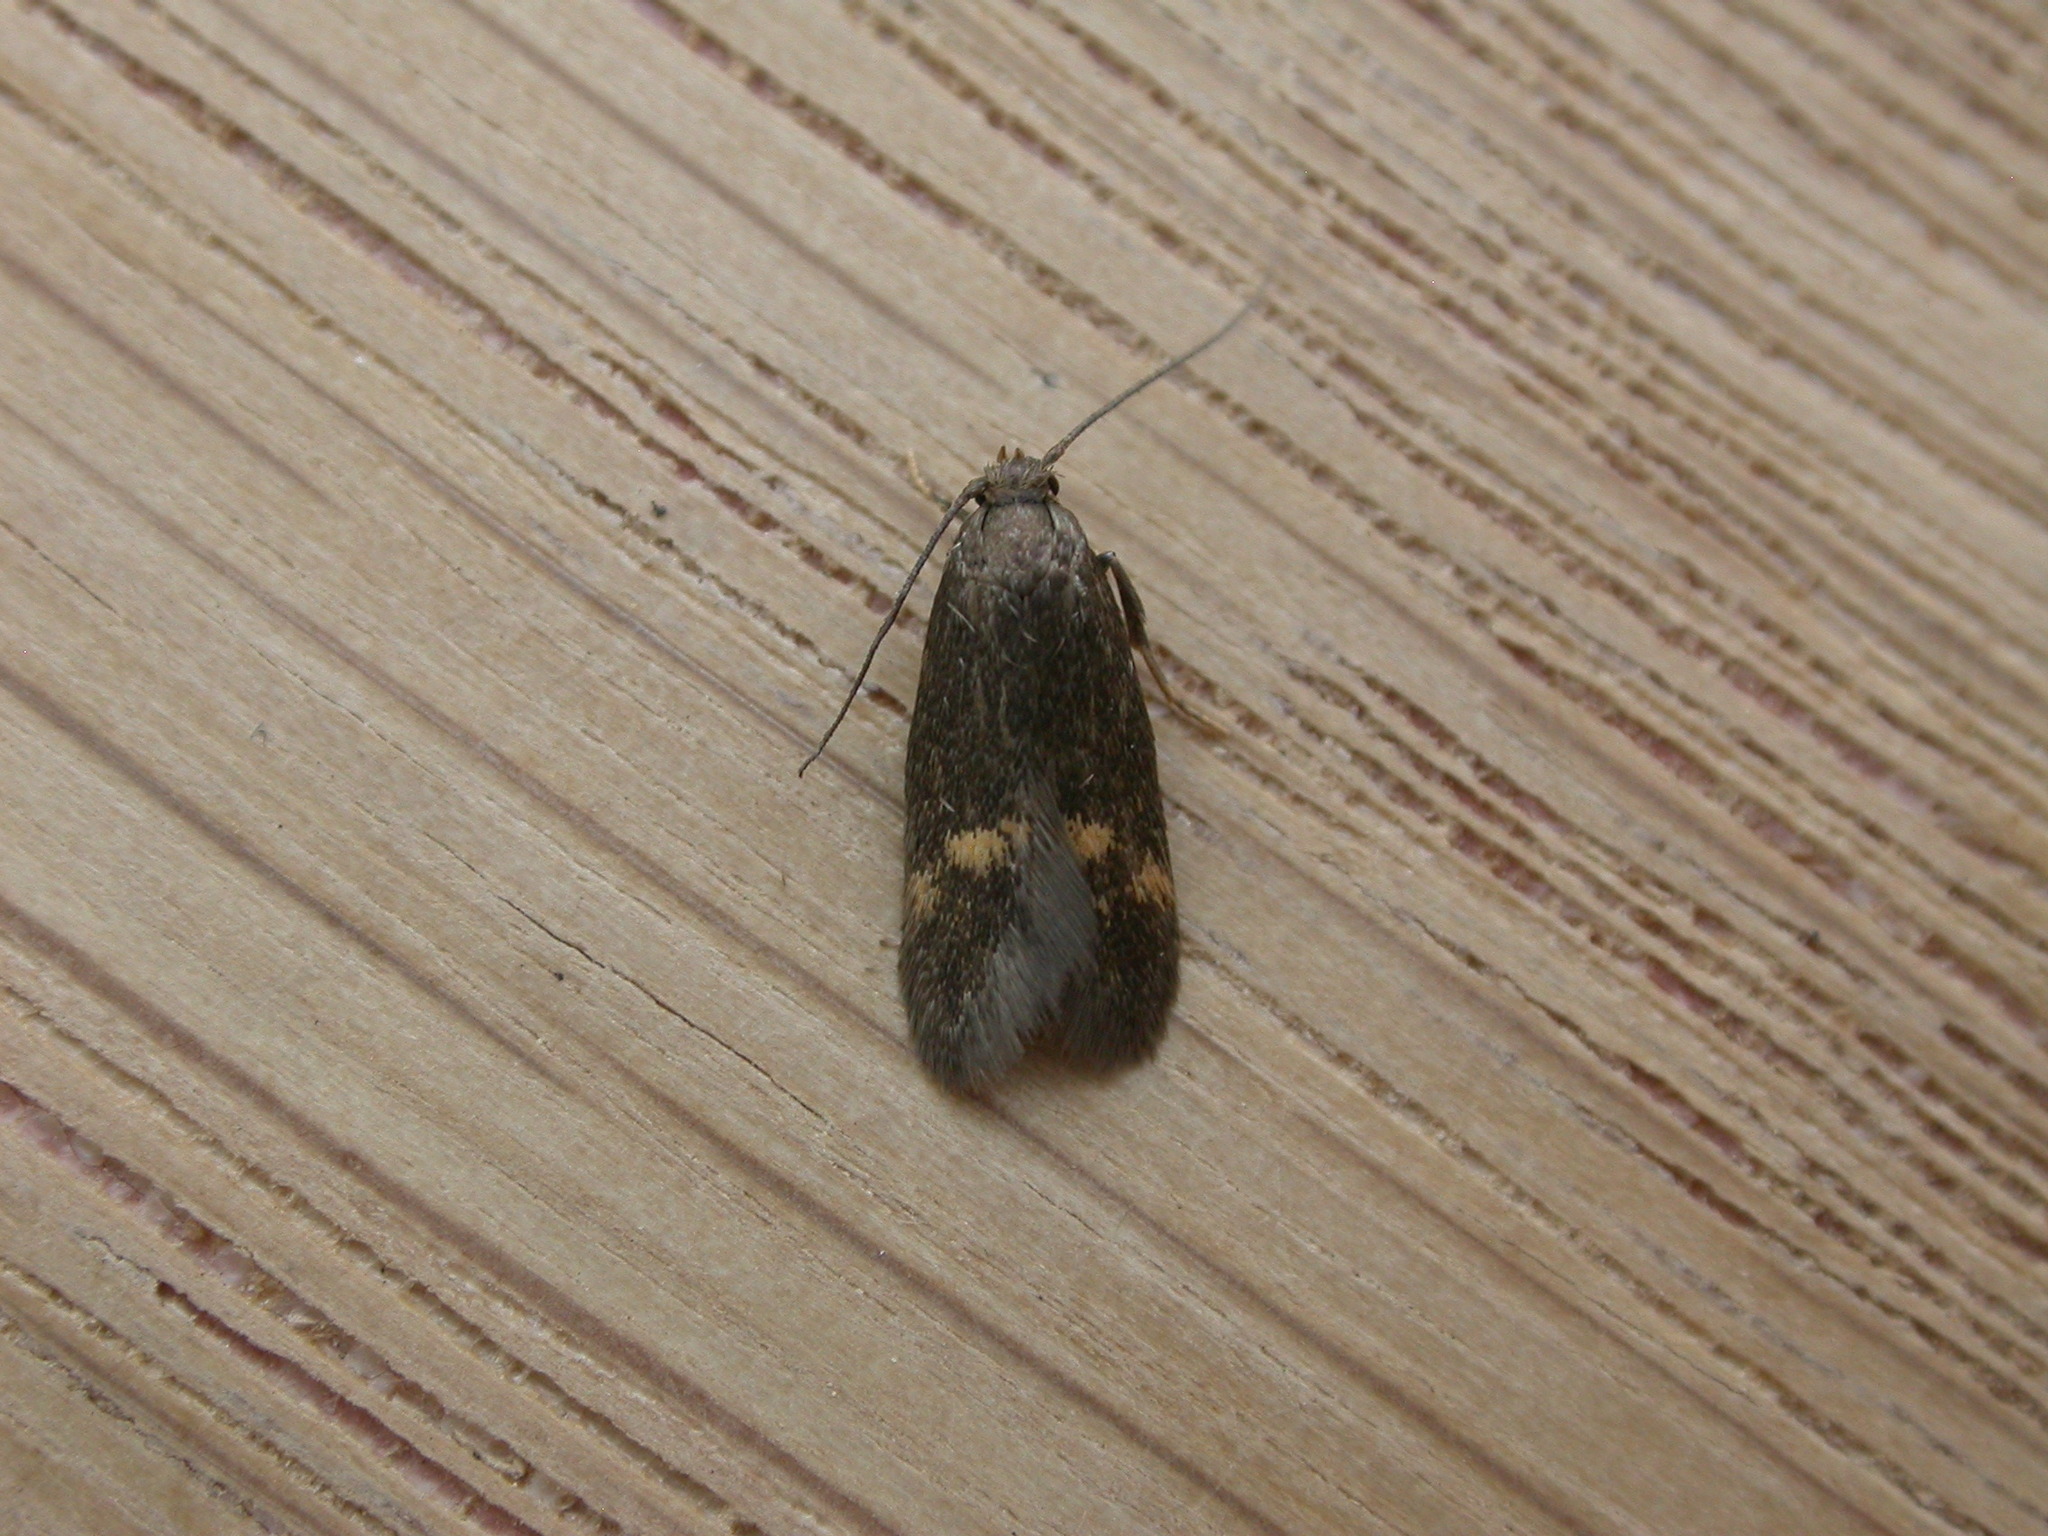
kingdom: Animalia
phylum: Arthropoda
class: Insecta
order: Lepidoptera
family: Oecophoridae
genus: Borkhausenia
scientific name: Borkhausenia minutella
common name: Thatch tubic
